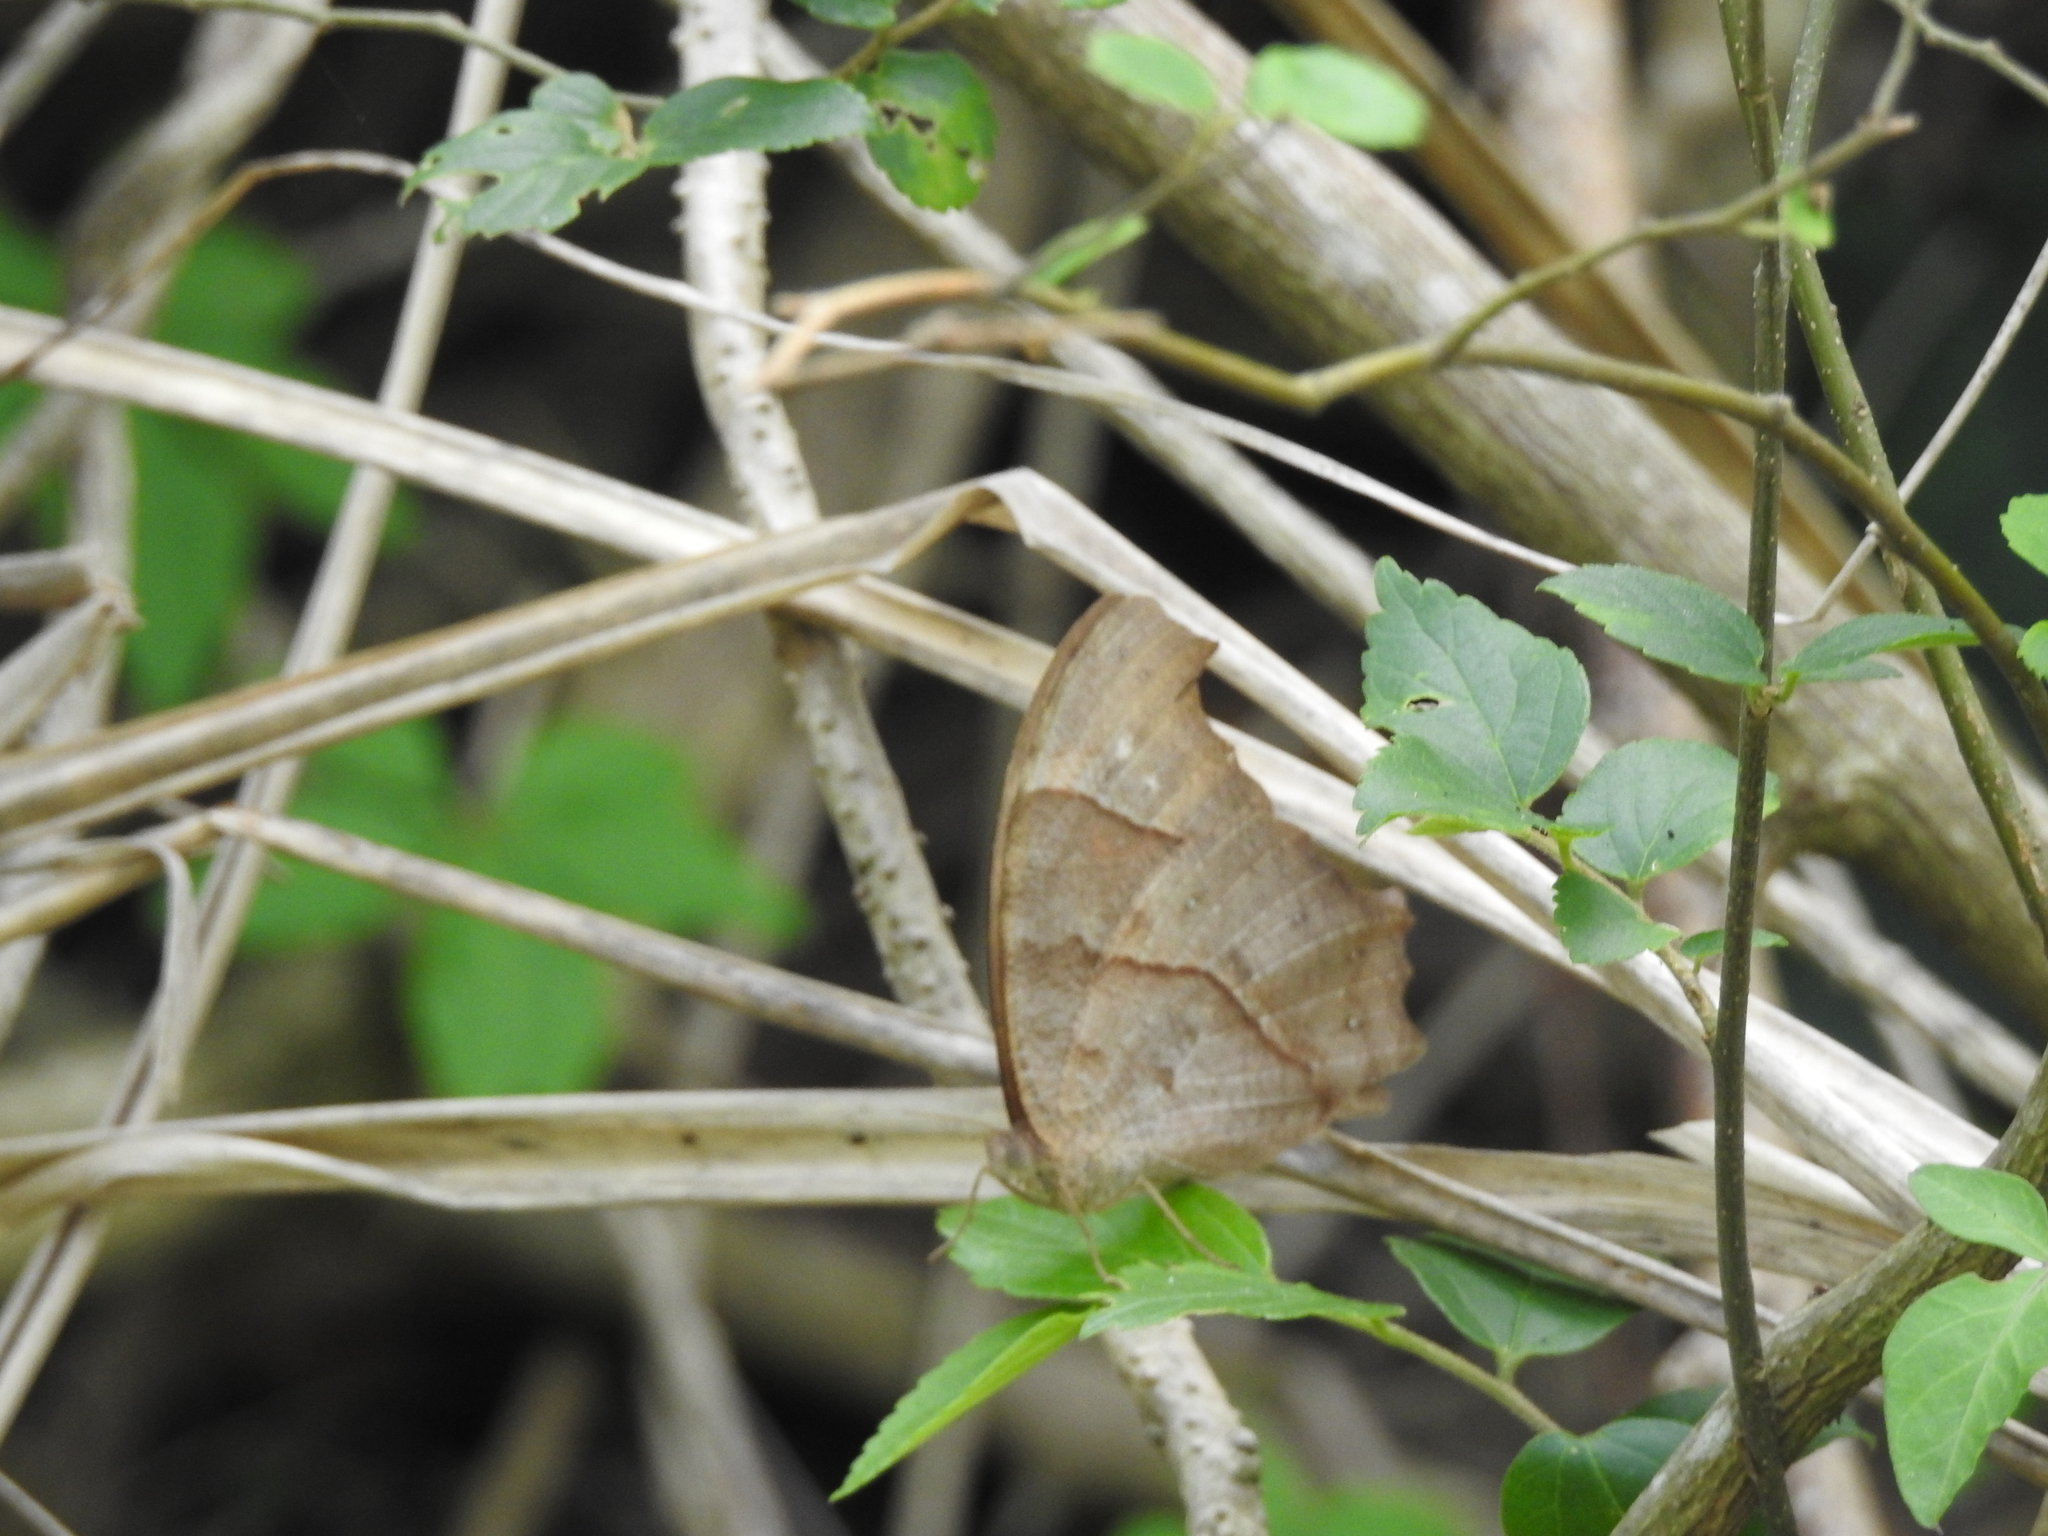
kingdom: Animalia
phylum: Arthropoda
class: Insecta
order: Lepidoptera
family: Nymphalidae
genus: Melanitis
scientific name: Melanitis leda
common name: Twilight brown
